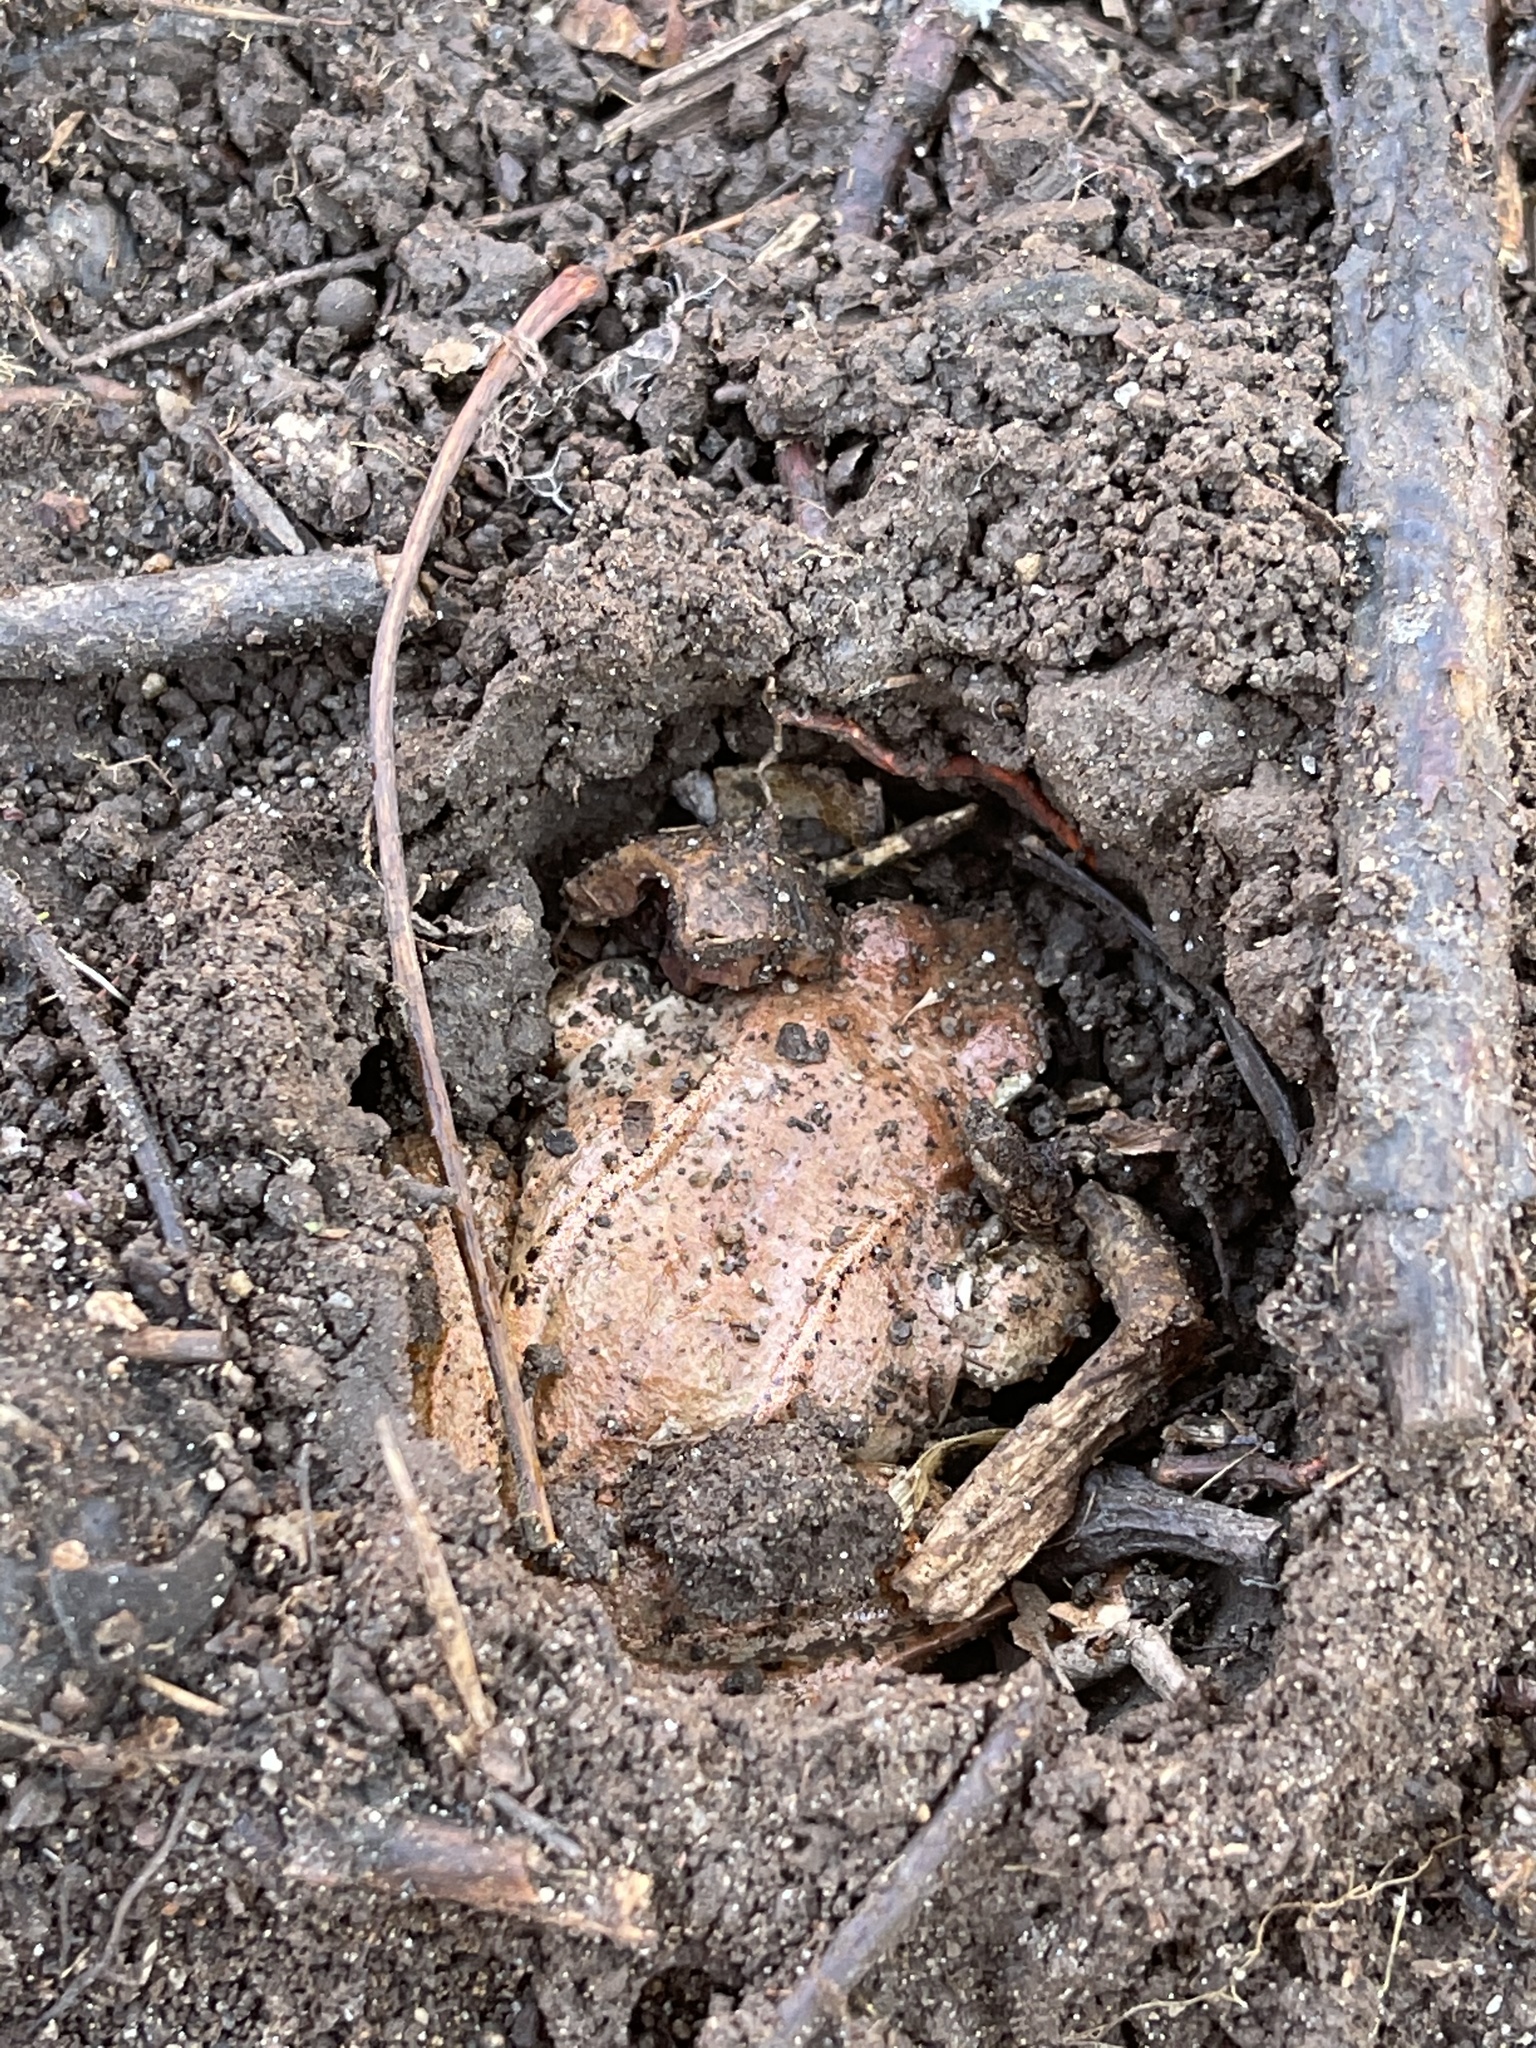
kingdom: Animalia
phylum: Chordata
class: Amphibia
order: Anura
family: Ranidae
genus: Lithobates
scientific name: Lithobates sylvaticus
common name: Wood frog
